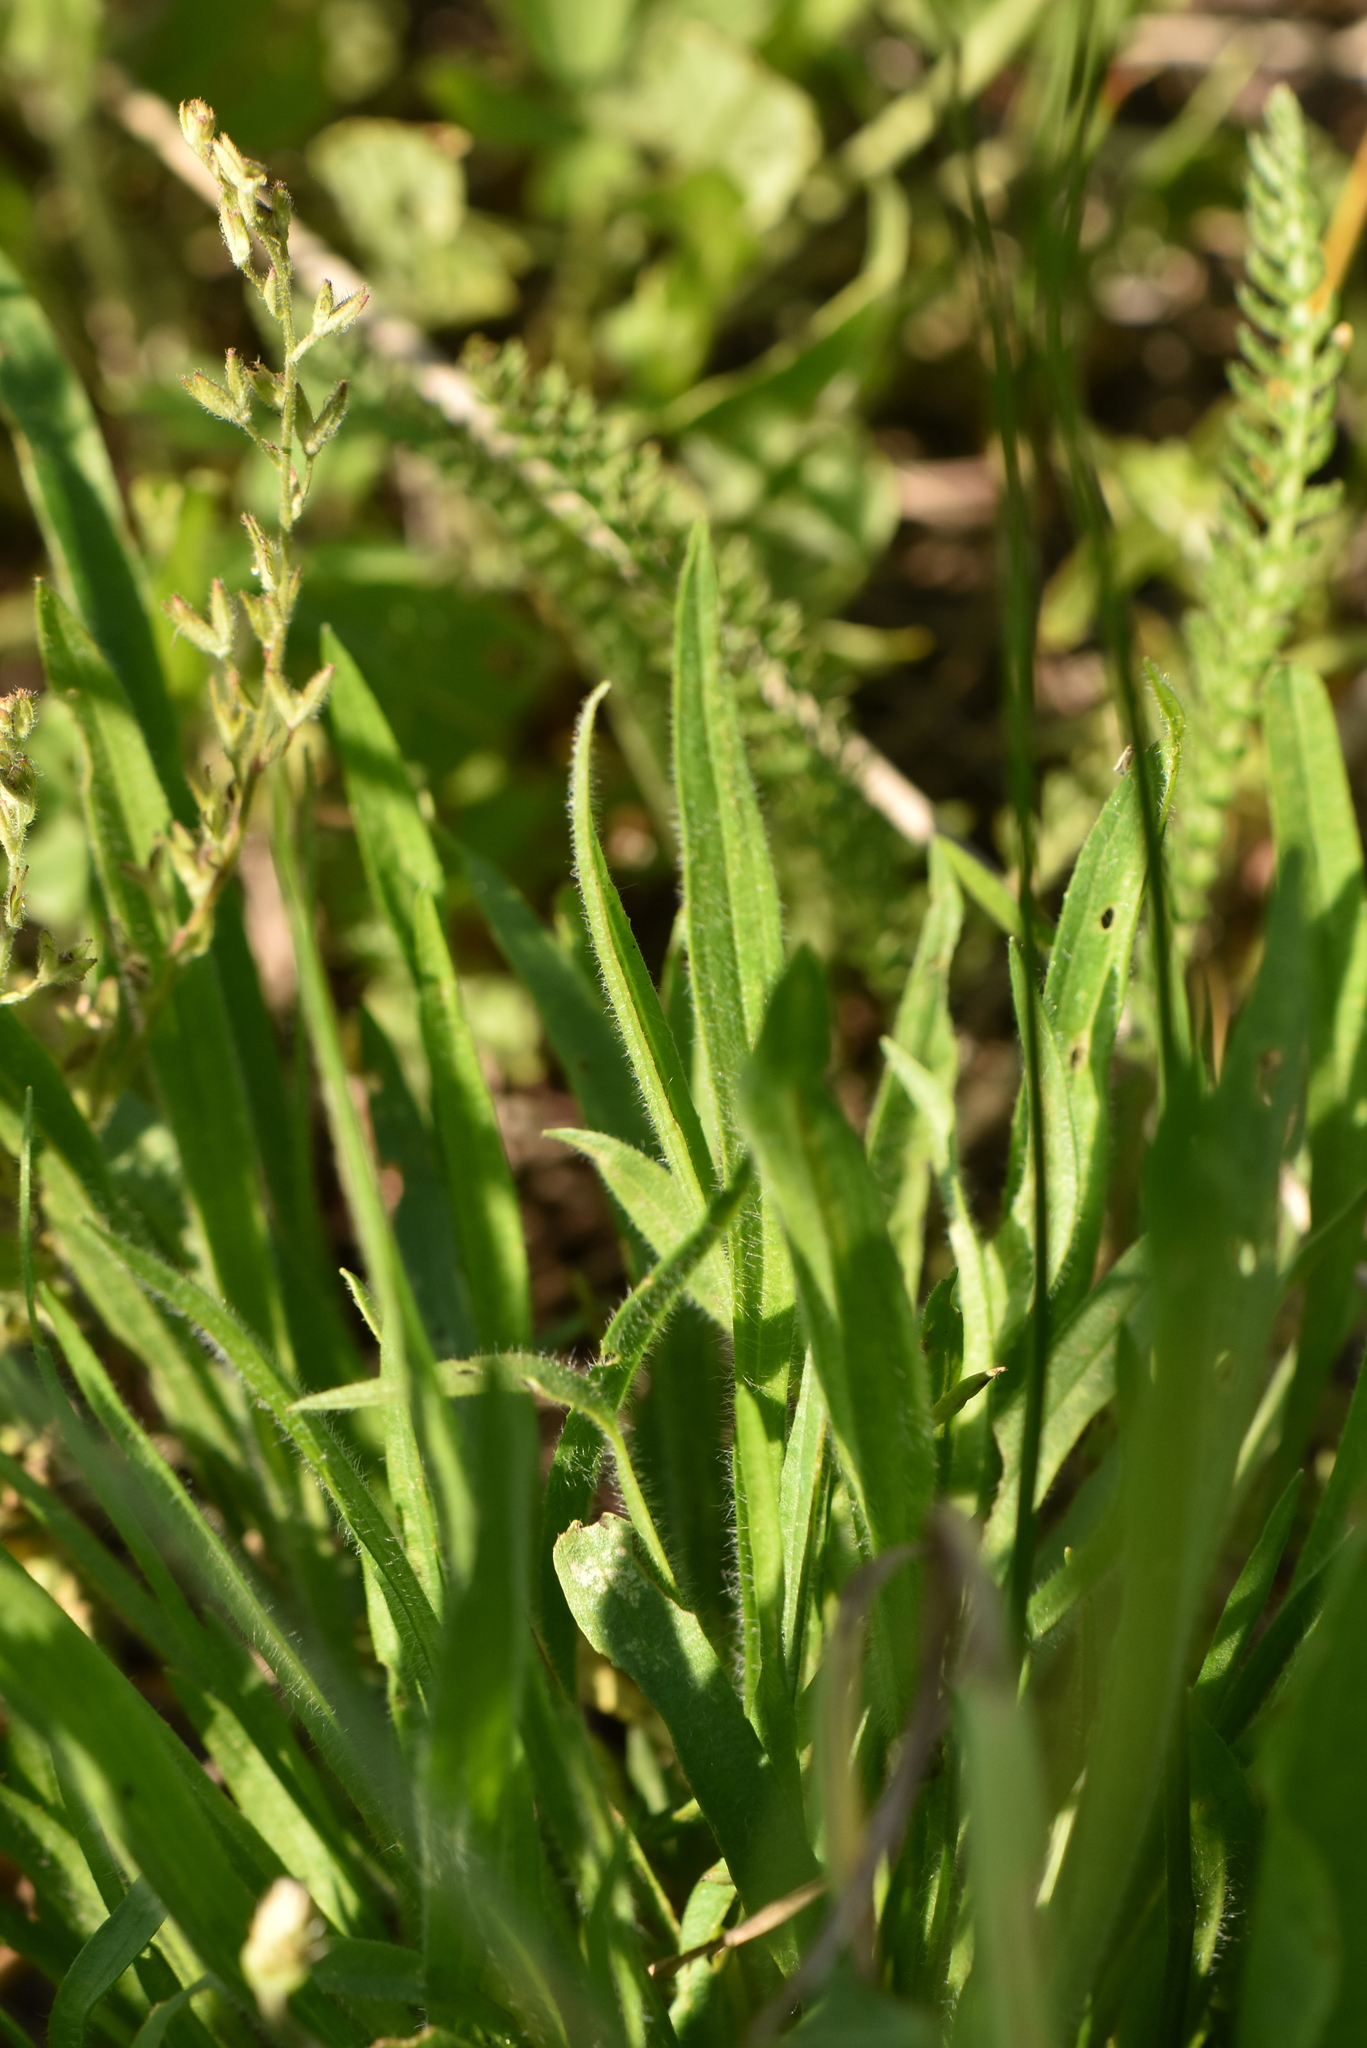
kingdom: Plantae
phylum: Tracheophyta
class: Magnoliopsida
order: Lamiales
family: Plantaginaceae
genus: Plantago
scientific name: Plantago lanceolata
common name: Ribwort plantain
